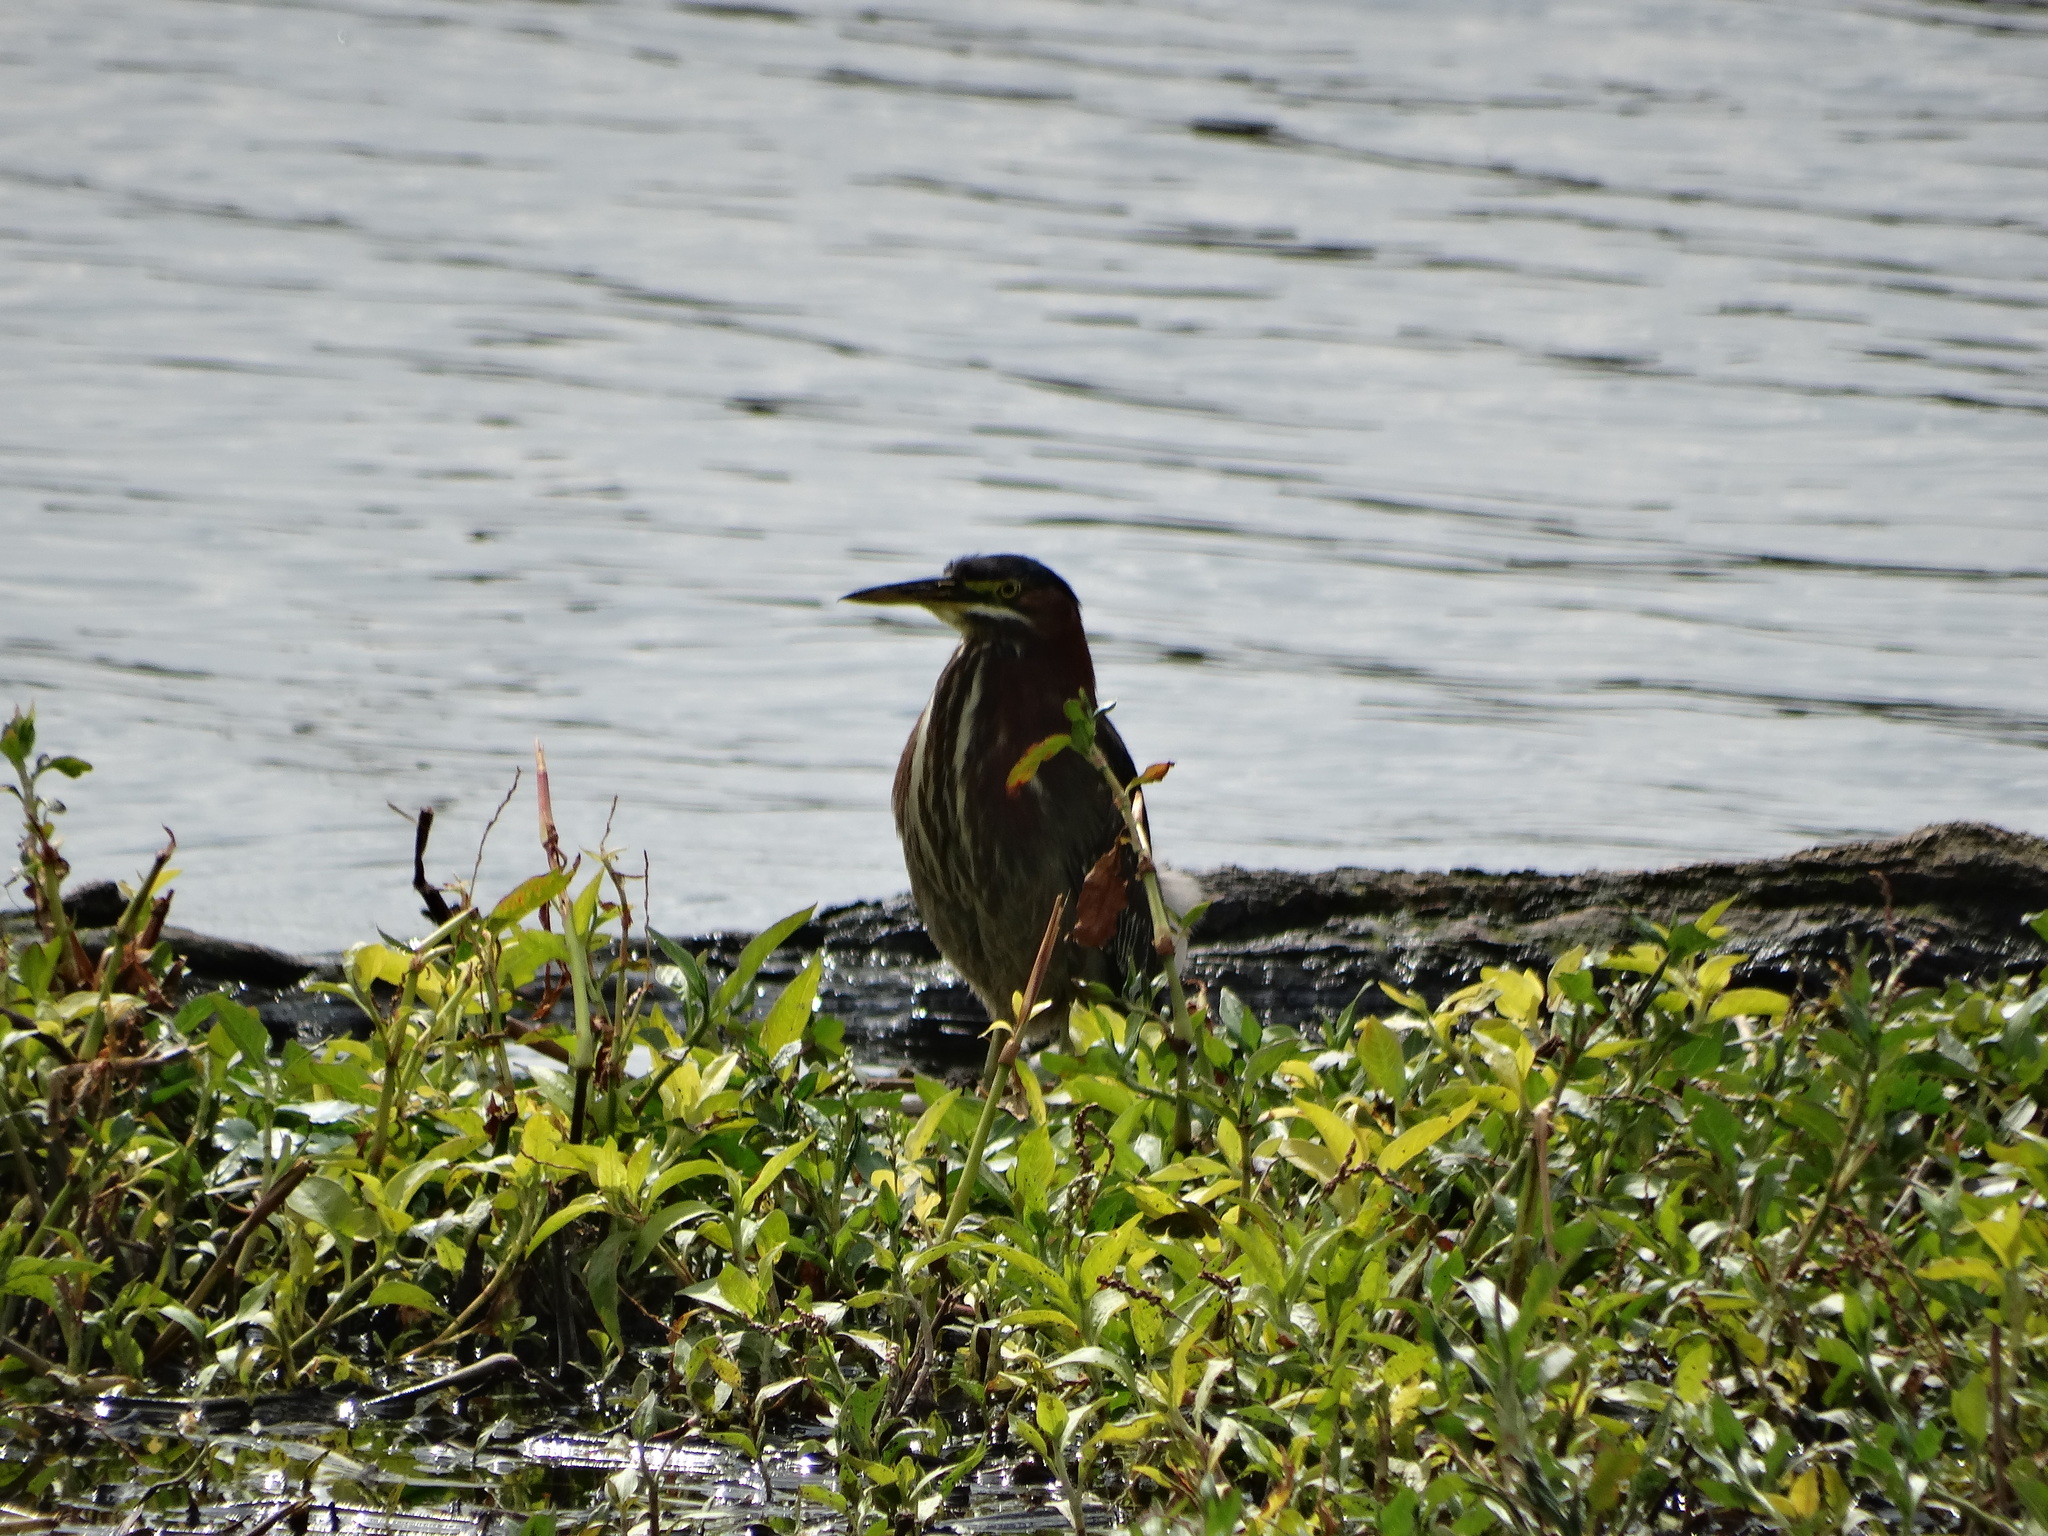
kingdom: Animalia
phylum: Chordata
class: Aves
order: Pelecaniformes
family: Ardeidae
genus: Butorides
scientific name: Butorides virescens
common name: Green heron
